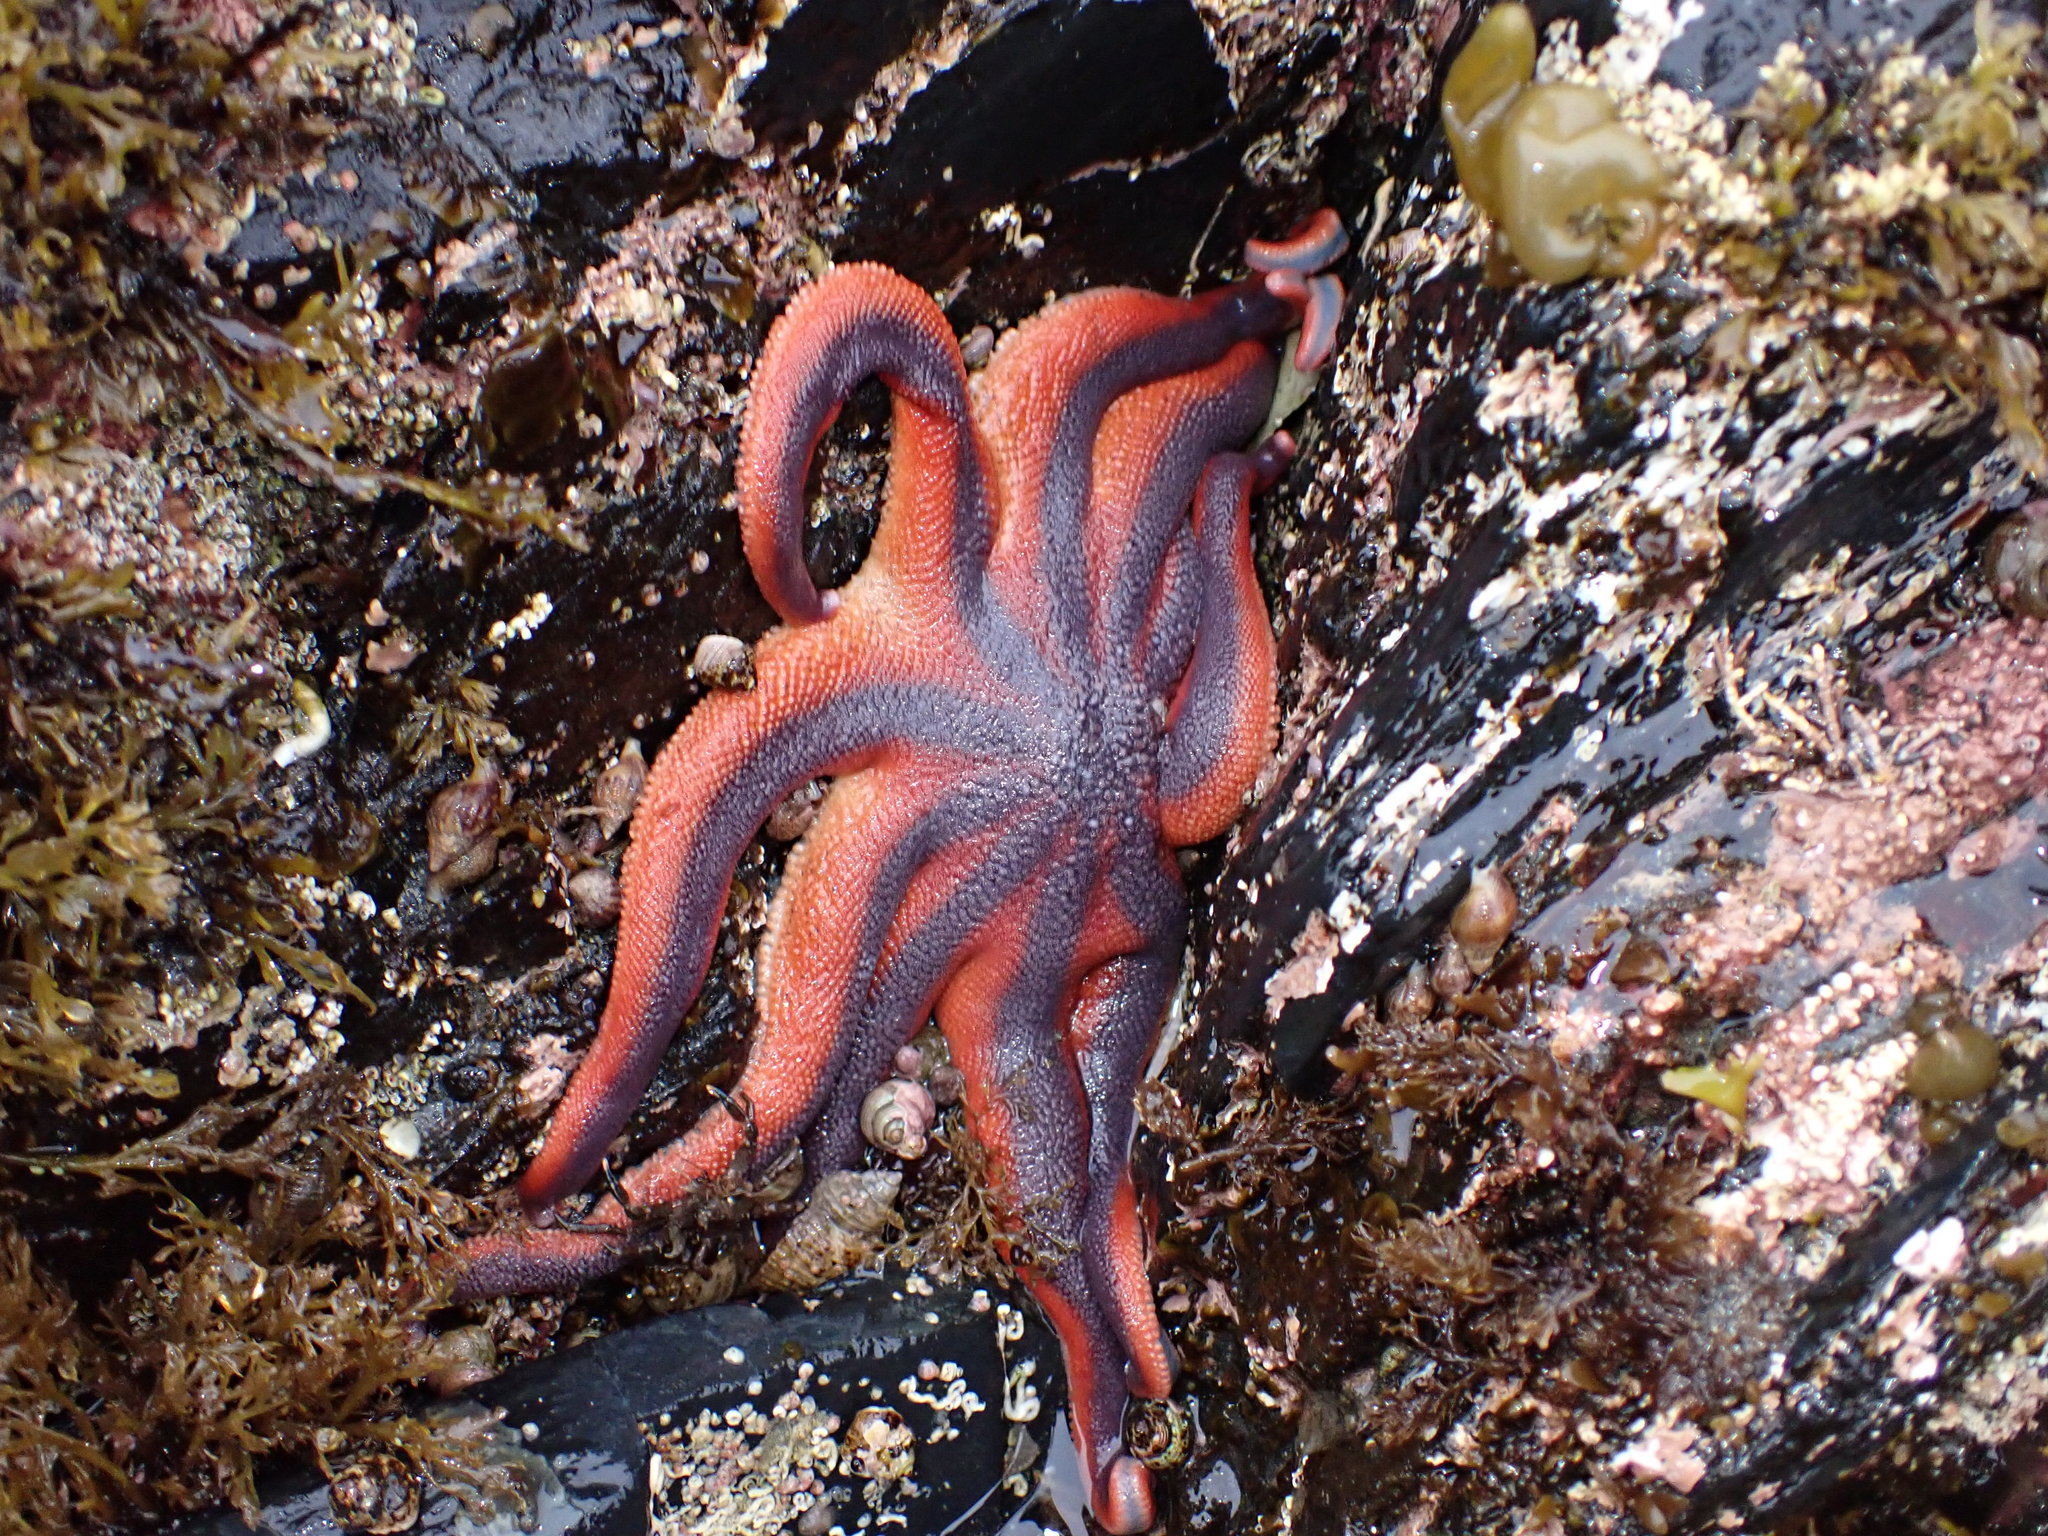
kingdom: Animalia
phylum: Echinodermata
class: Asteroidea
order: Valvatida
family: Solasteridae
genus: Solaster
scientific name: Solaster stimpsoni
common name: Orange sun star
